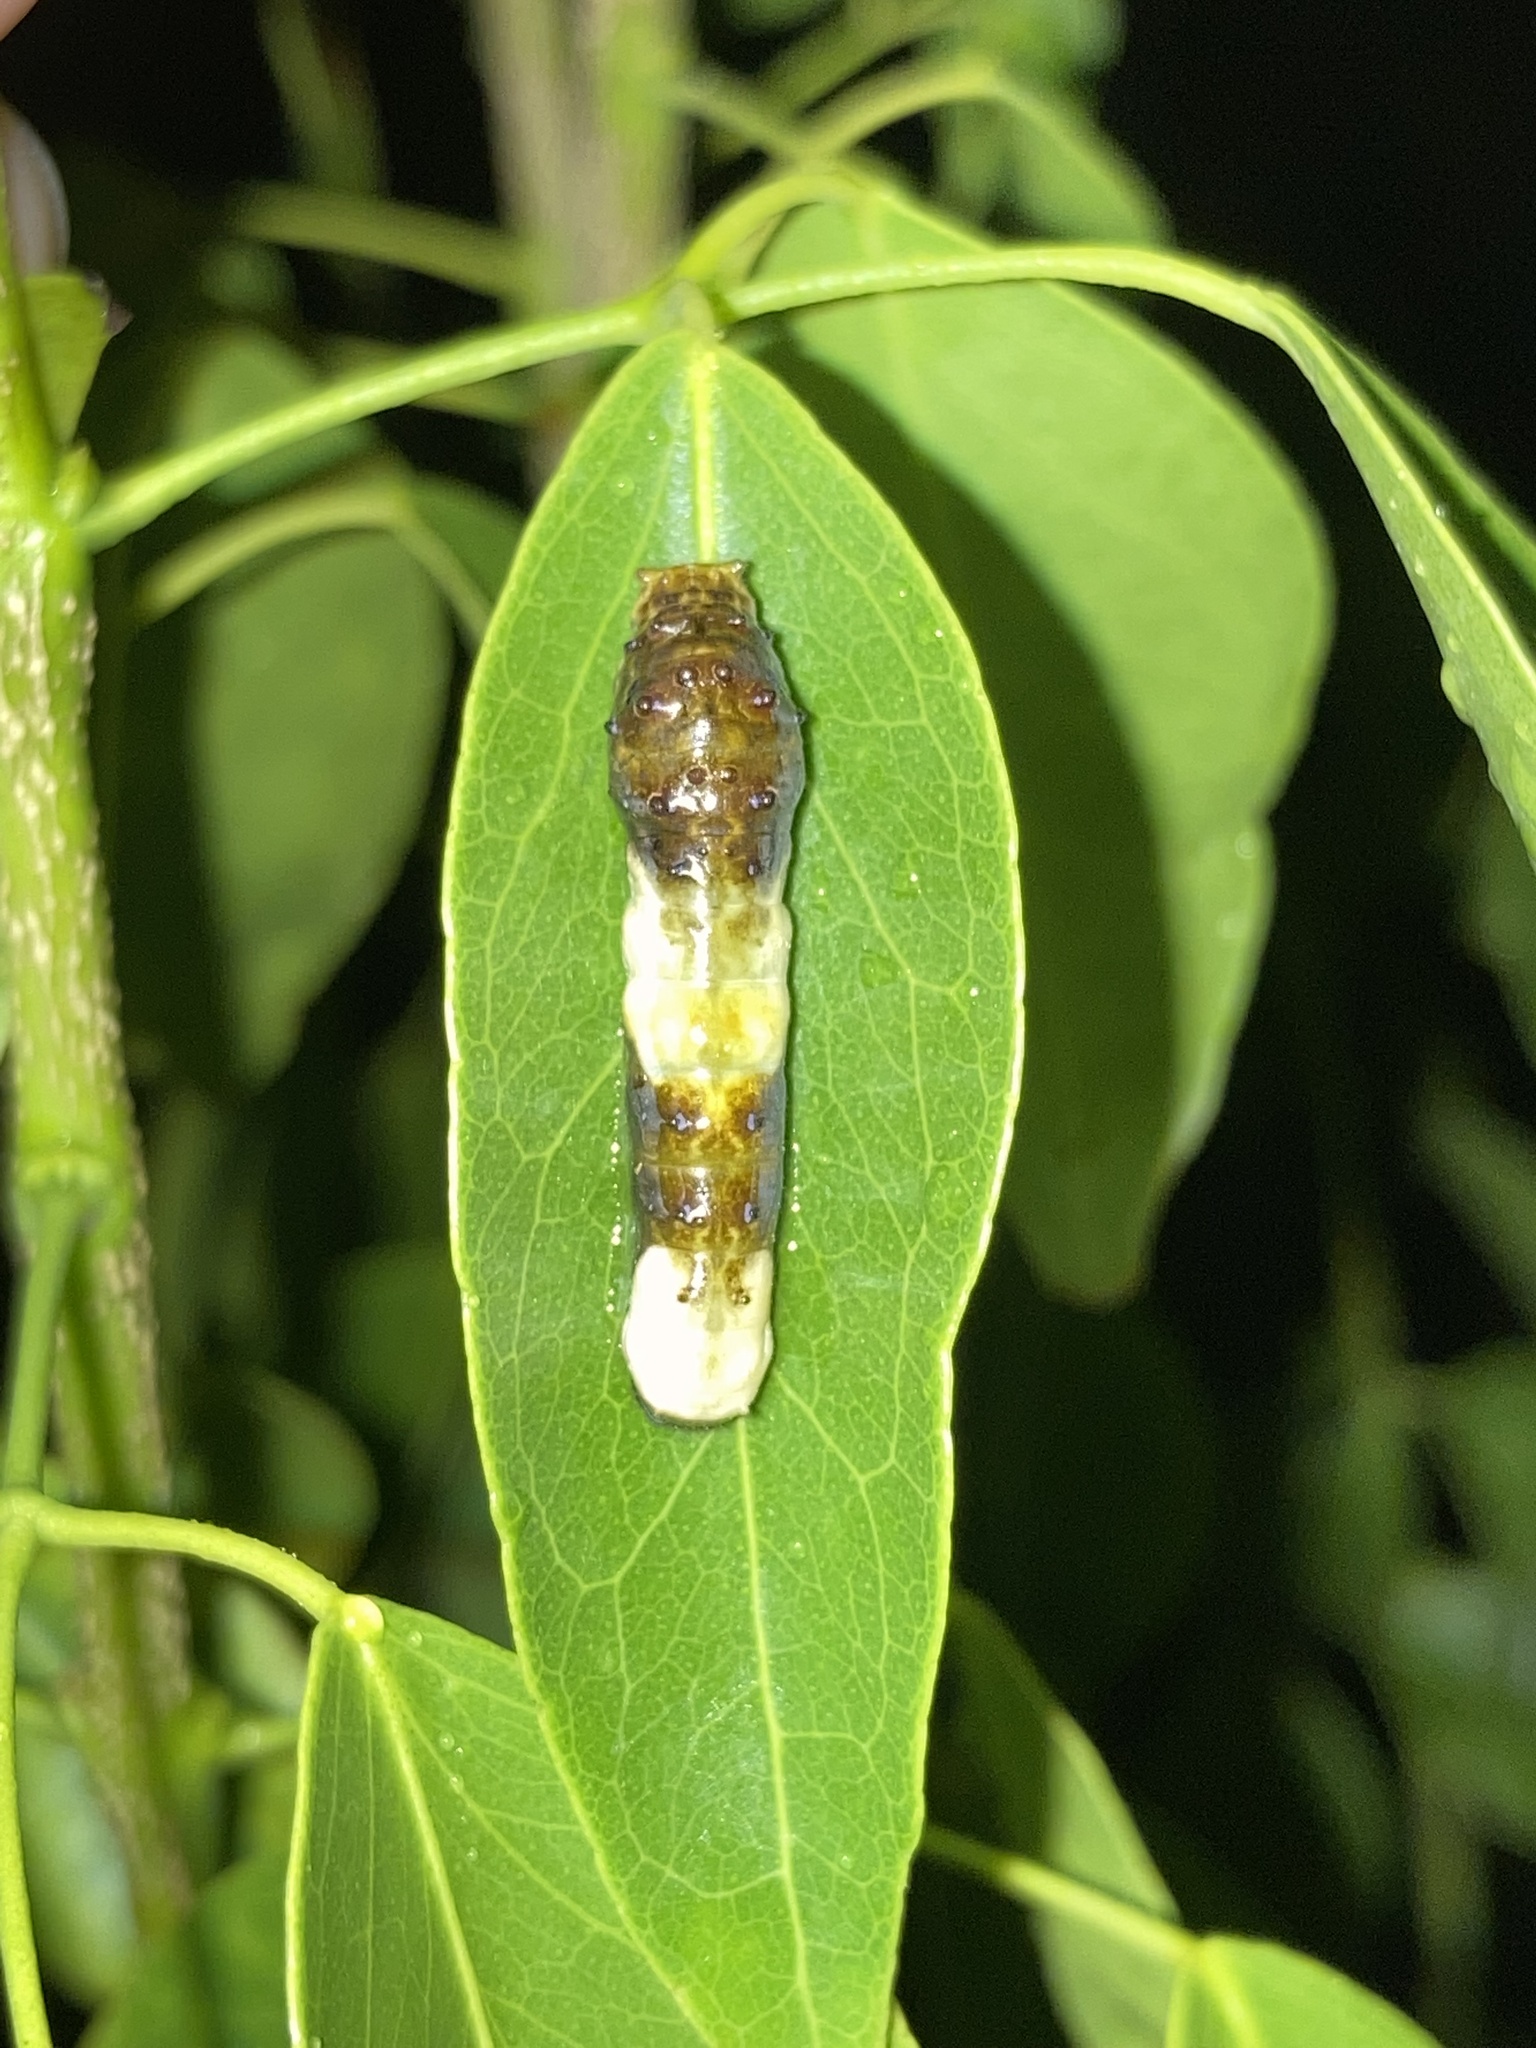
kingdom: Animalia
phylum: Arthropoda
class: Insecta
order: Lepidoptera
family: Papilionidae
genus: Papilio
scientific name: Papilio cresphontes
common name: Giant swallowtail
